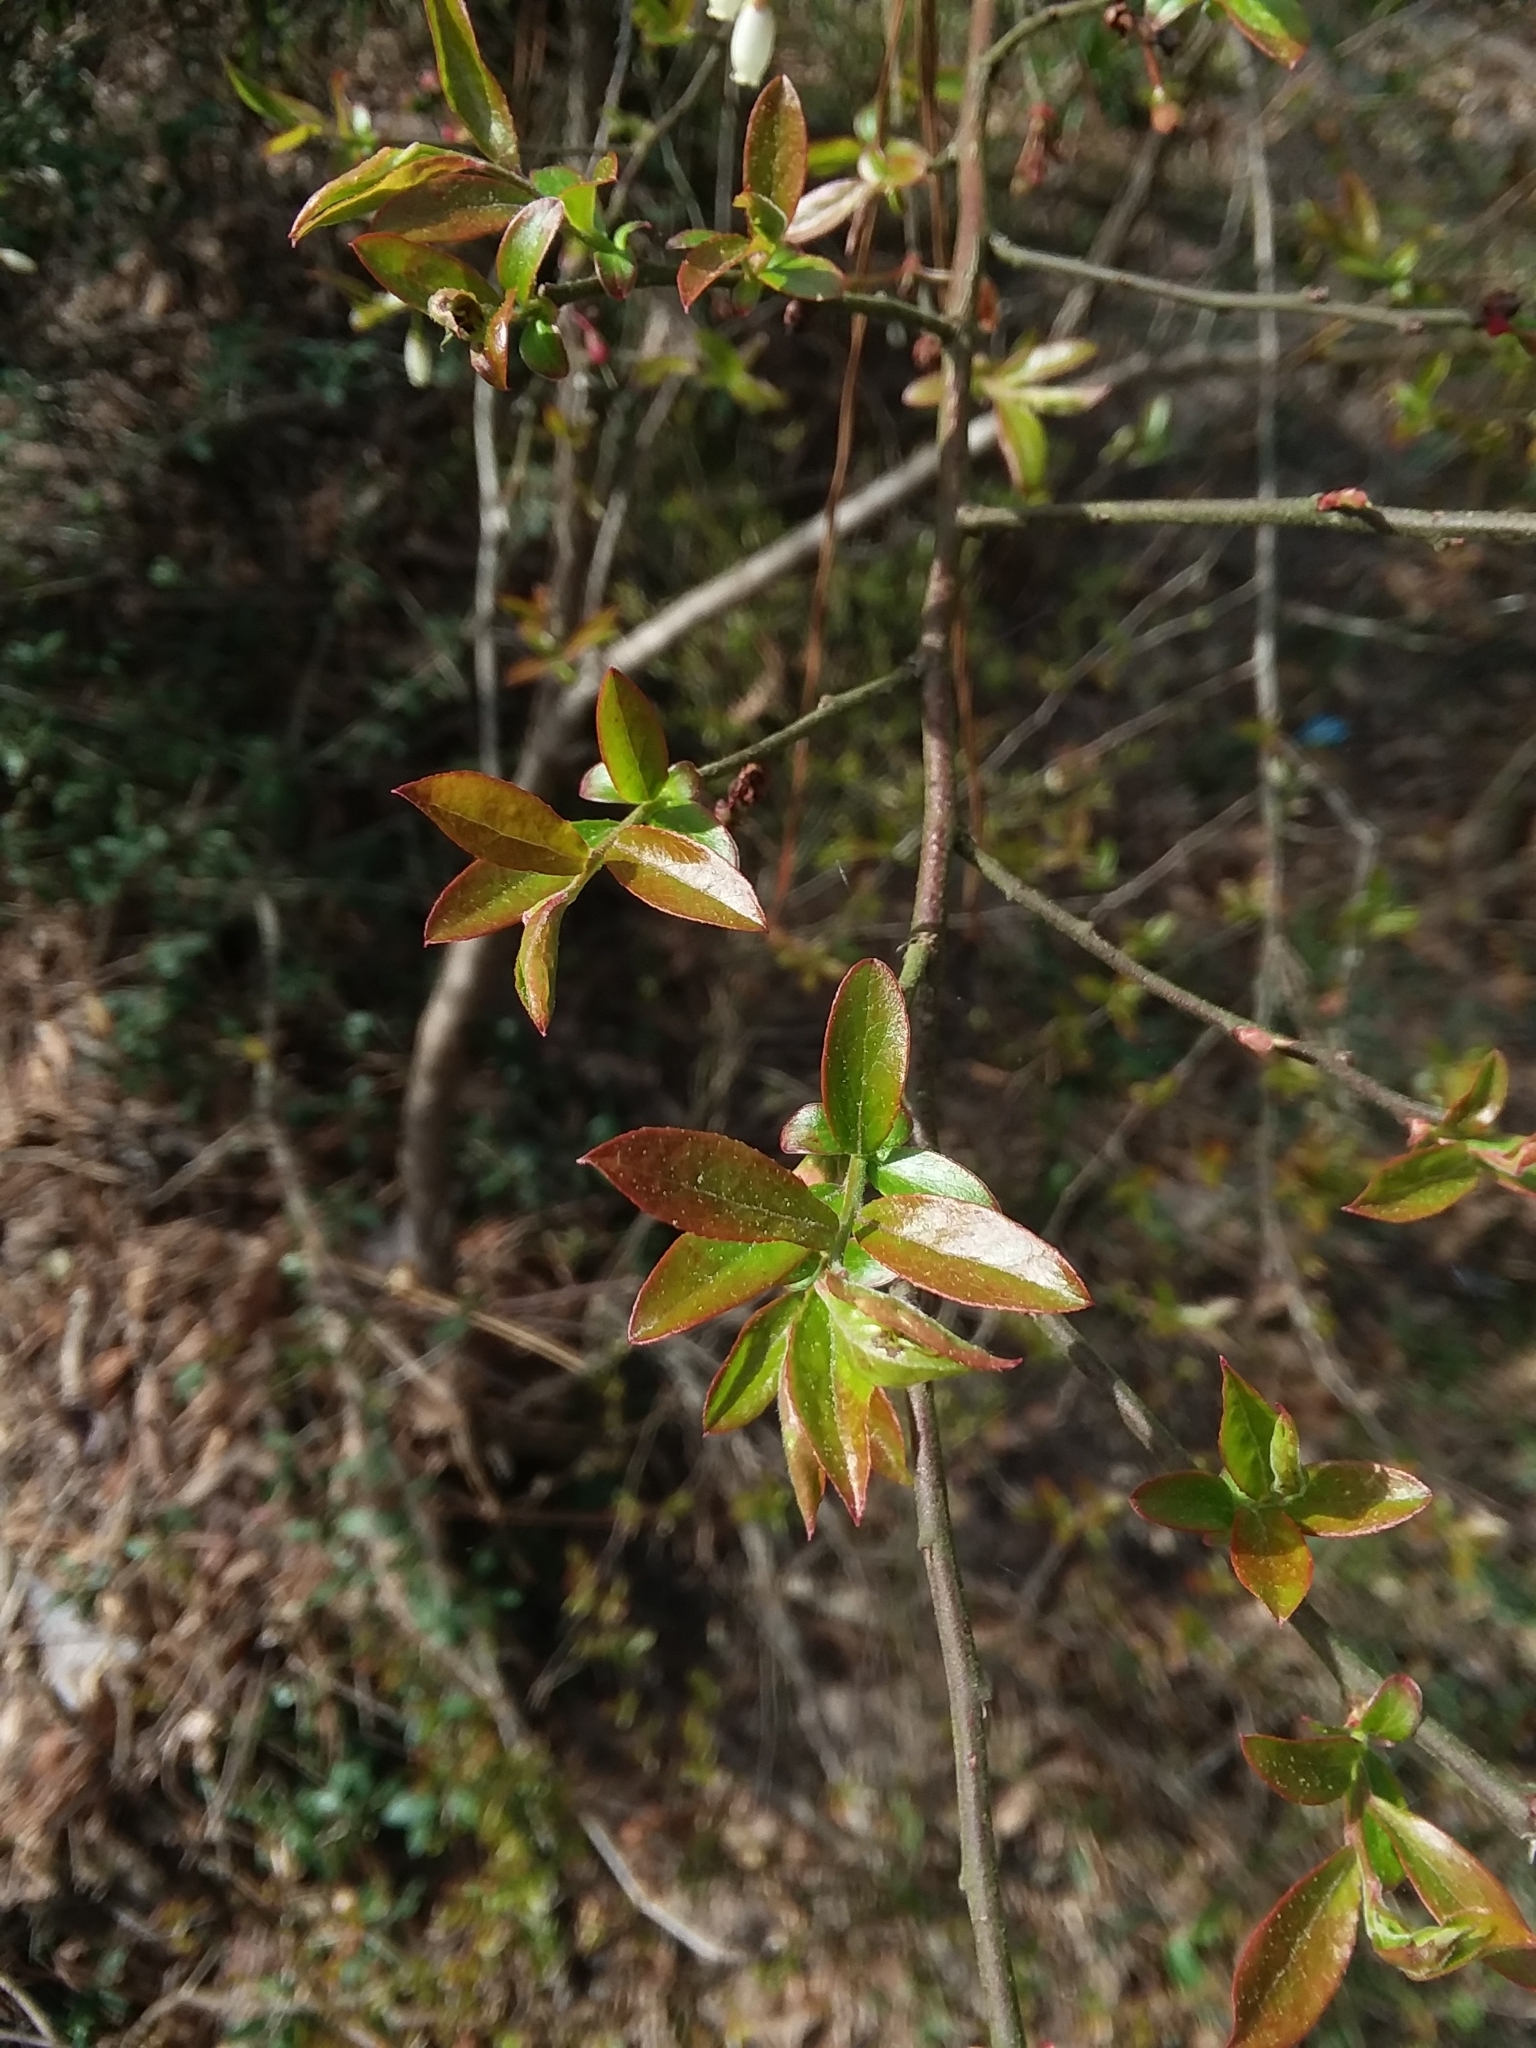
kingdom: Plantae
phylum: Tracheophyta
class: Magnoliopsida
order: Ericales
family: Ericaceae
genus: Vaccinium
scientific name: Vaccinium corymbosum
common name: Blueberry
